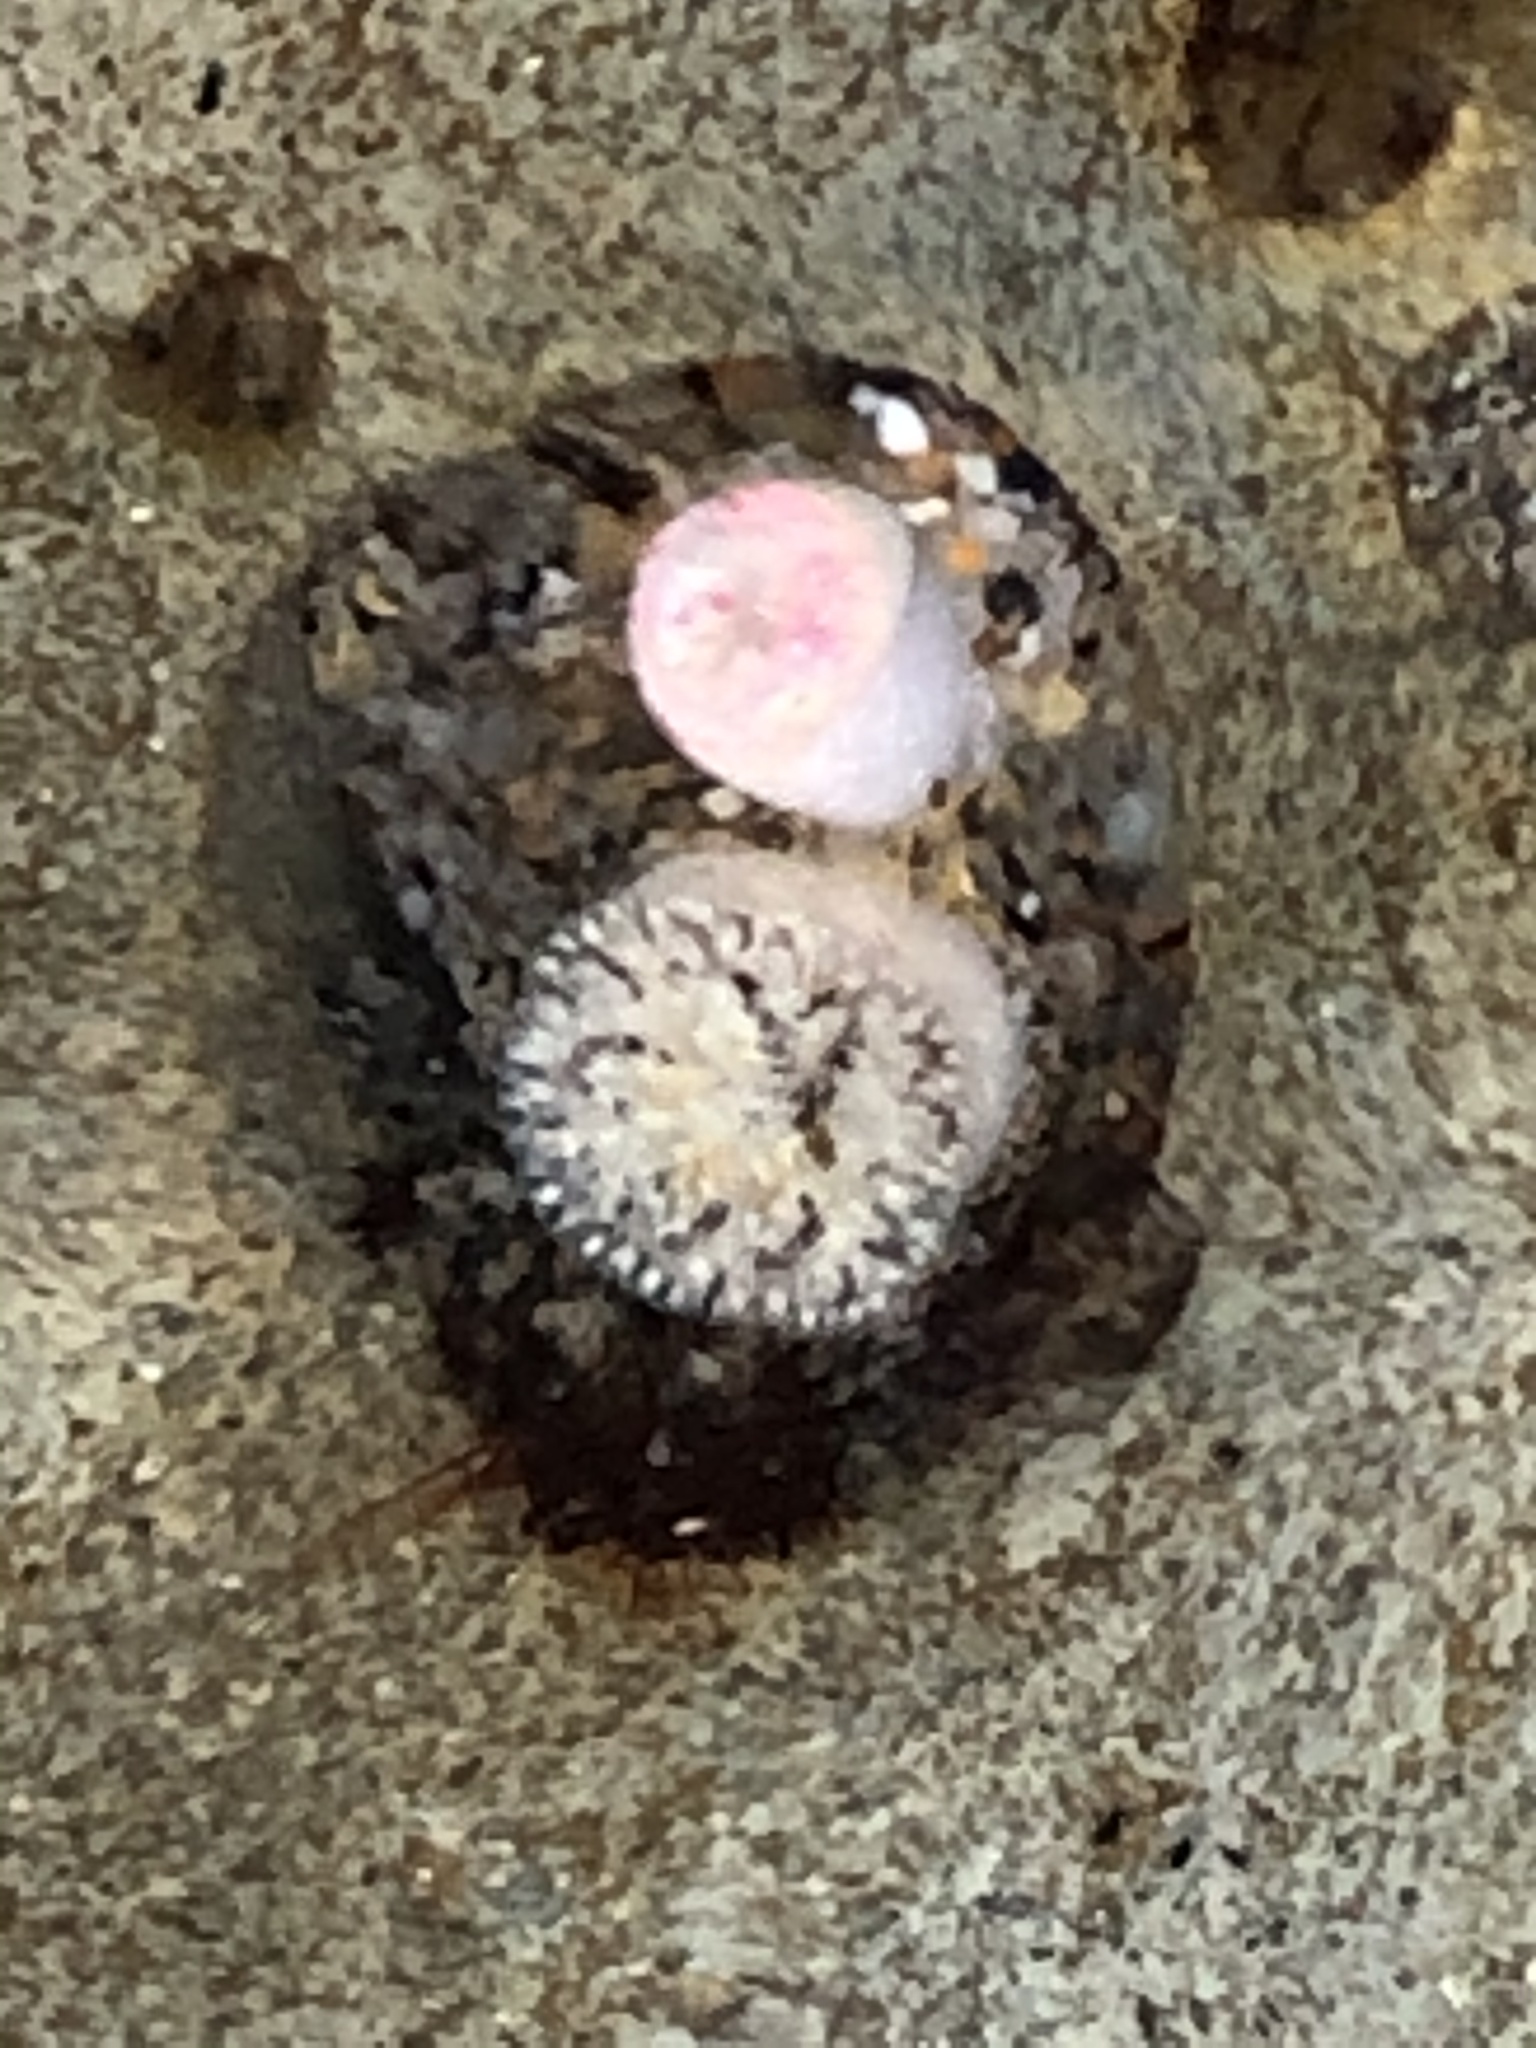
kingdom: Animalia
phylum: Mollusca
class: Bivalvia
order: Venerida
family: Veneridae
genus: Petricola
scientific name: Petricola carditoides
